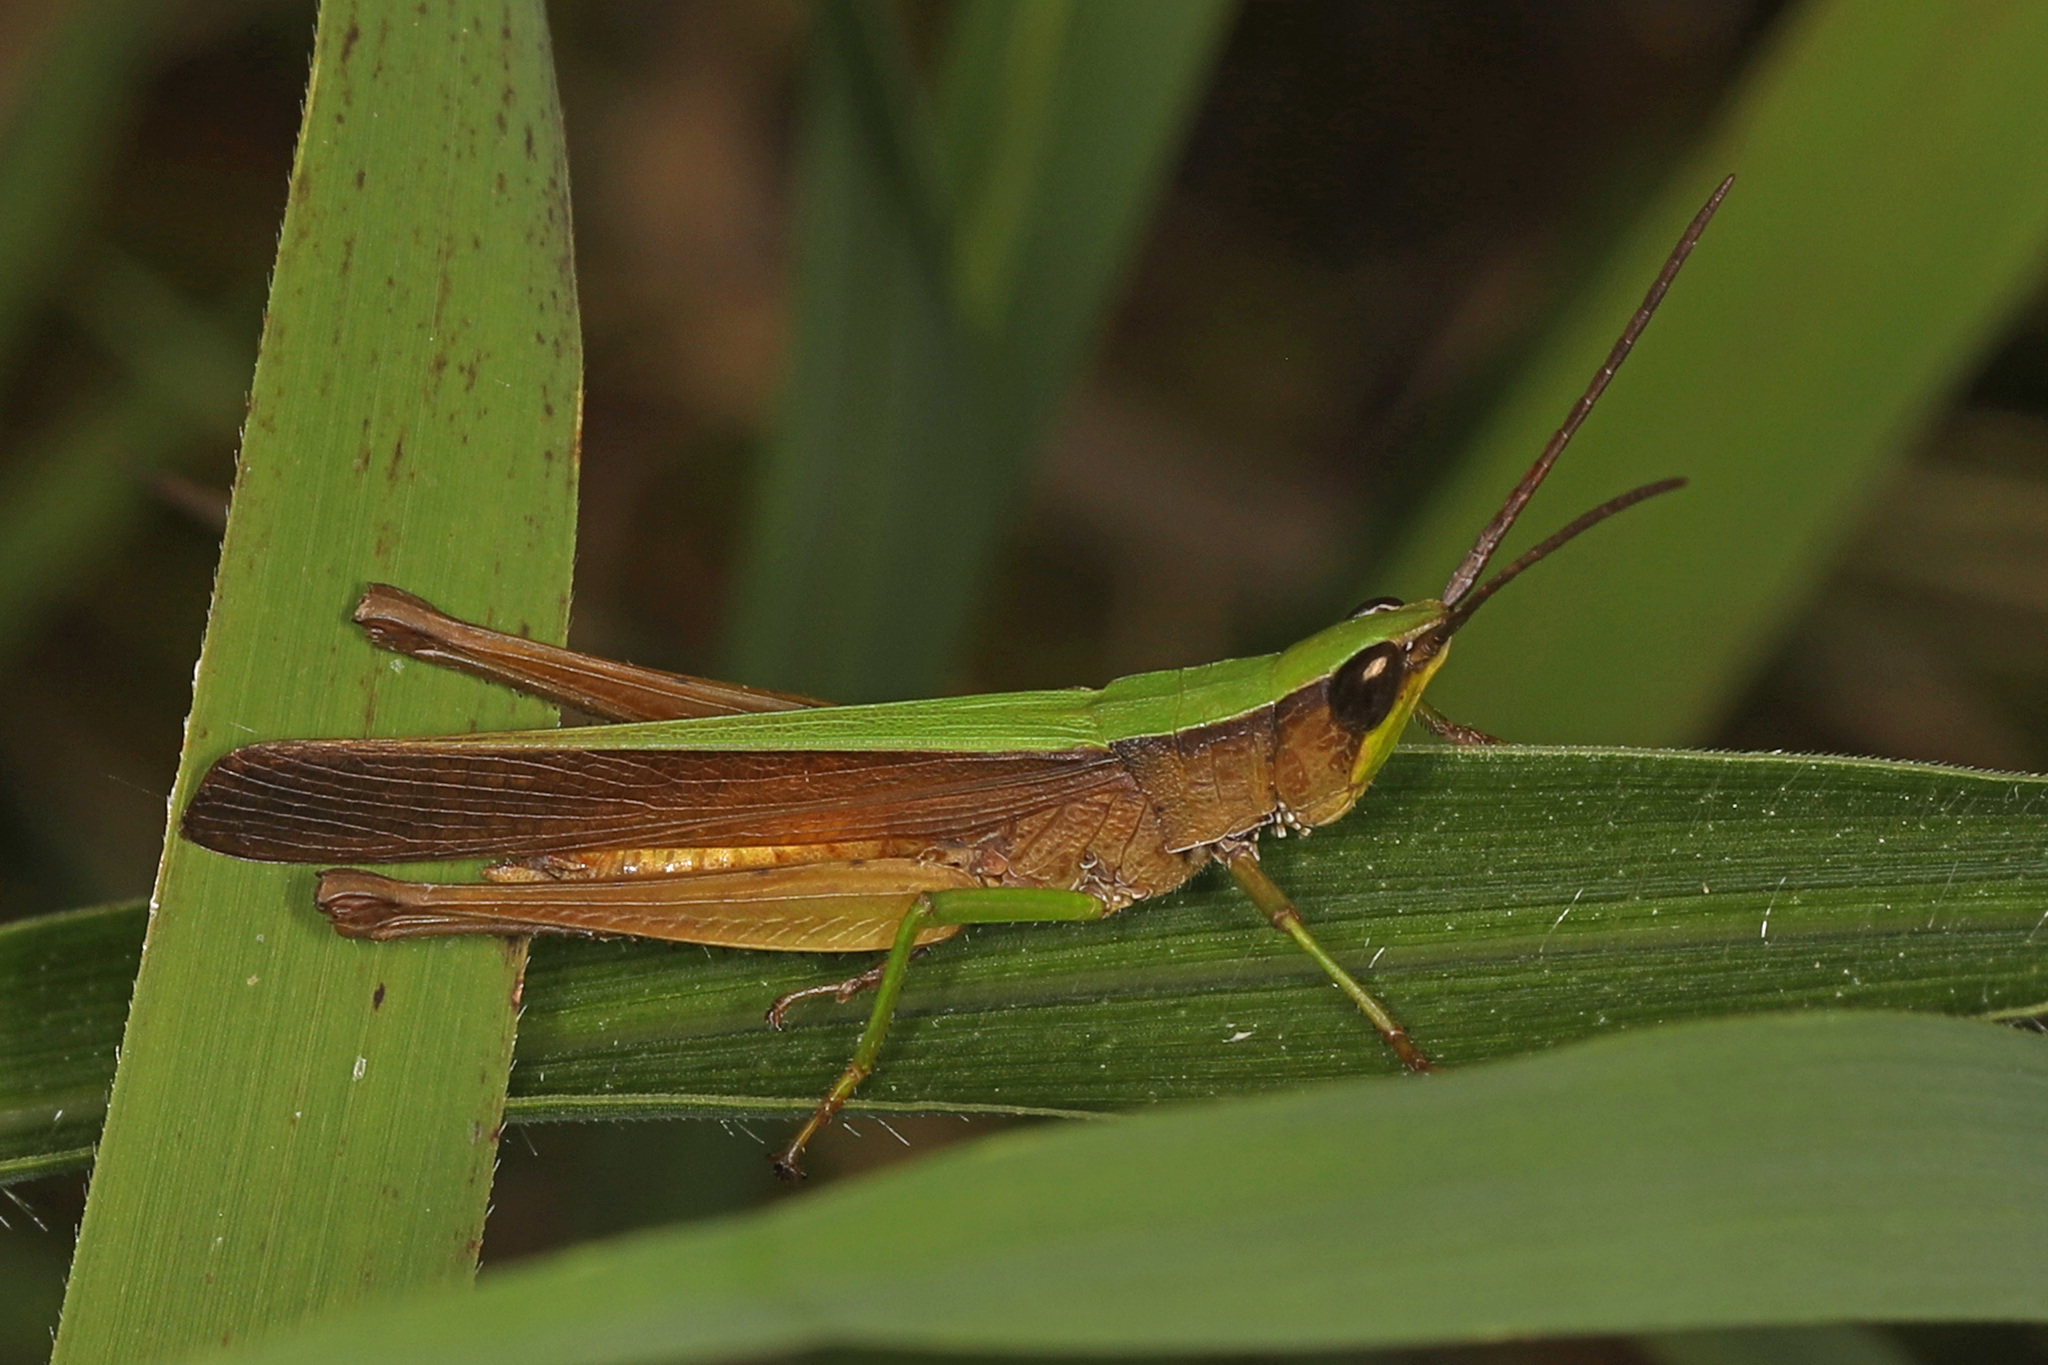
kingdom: Animalia
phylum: Arthropoda
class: Insecta
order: Orthoptera
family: Acrididae
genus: Metaleptea
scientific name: Metaleptea brevicornis
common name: Clipped-wing grasshopper
